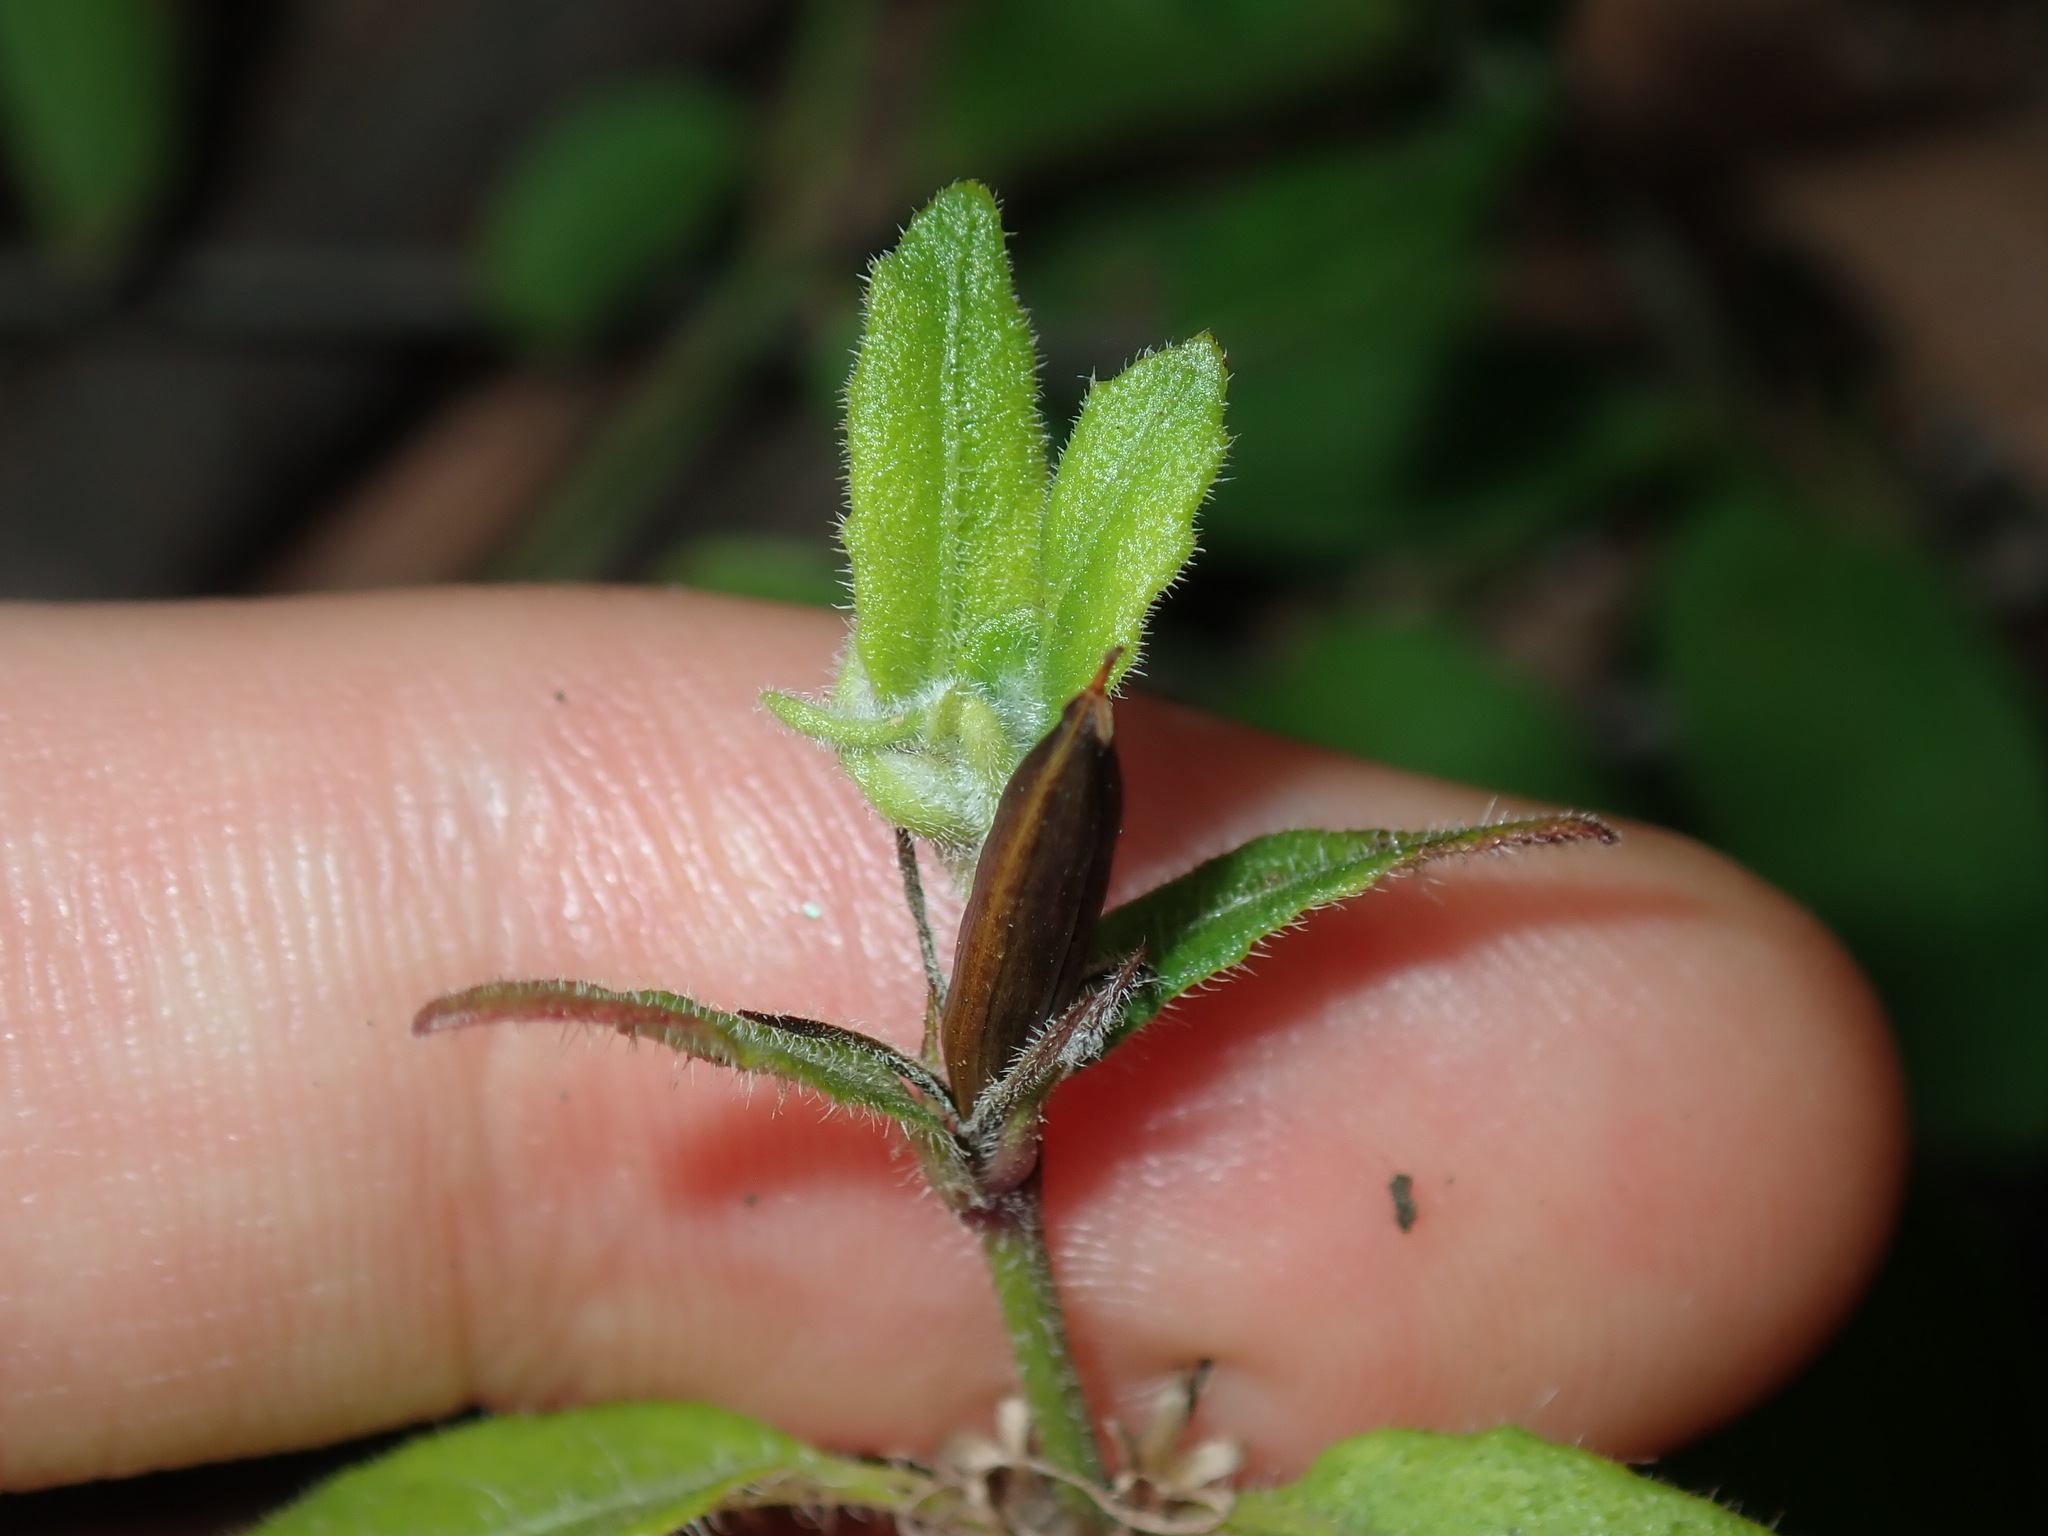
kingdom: Plantae
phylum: Tracheophyta
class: Magnoliopsida
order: Lamiales
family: Acanthaceae
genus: Brunoniella
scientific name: Brunoniella australis
